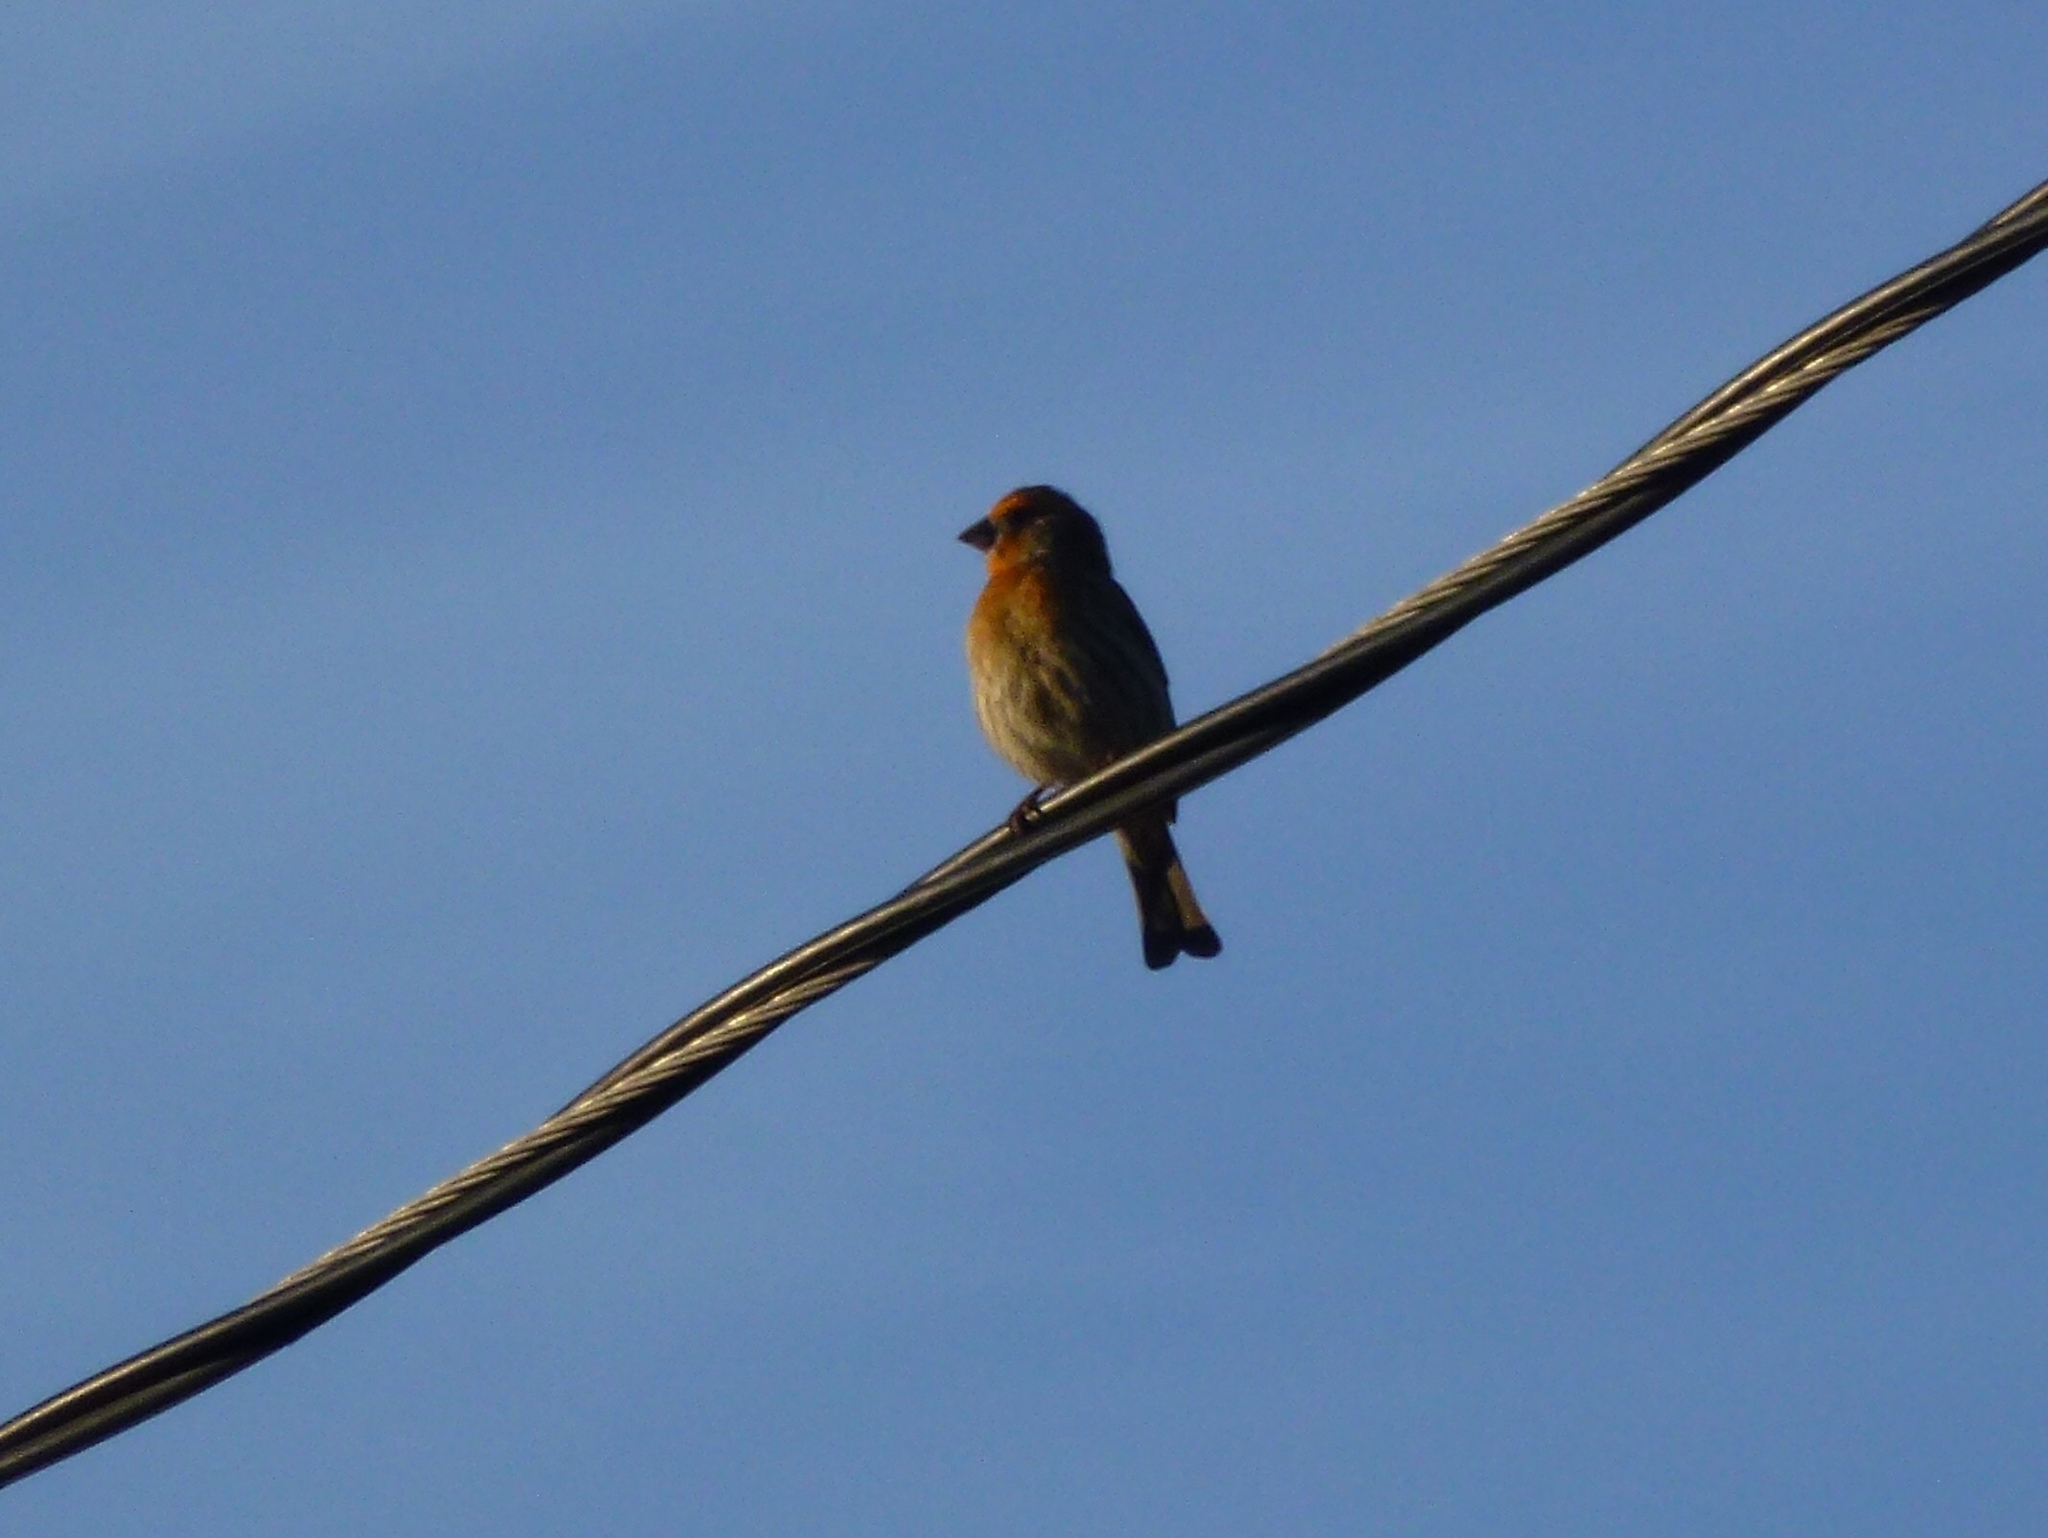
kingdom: Animalia
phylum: Chordata
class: Aves
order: Passeriformes
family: Fringillidae
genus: Haemorhous
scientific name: Haemorhous mexicanus
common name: House finch
